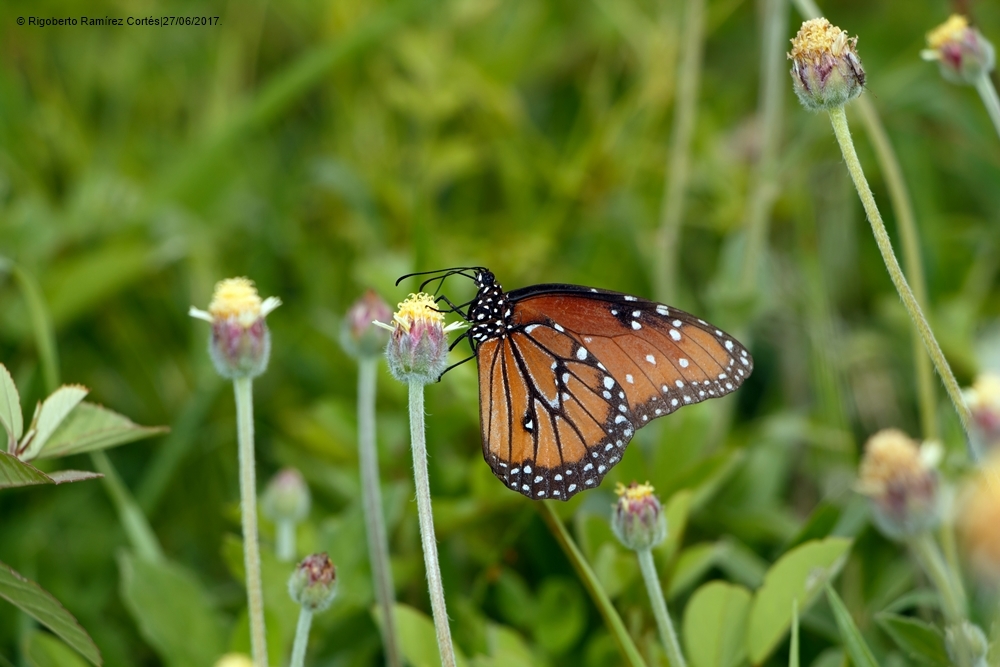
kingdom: Animalia
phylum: Arthropoda
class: Insecta
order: Lepidoptera
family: Nymphalidae
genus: Danaus
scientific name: Danaus gilippus
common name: Queen
